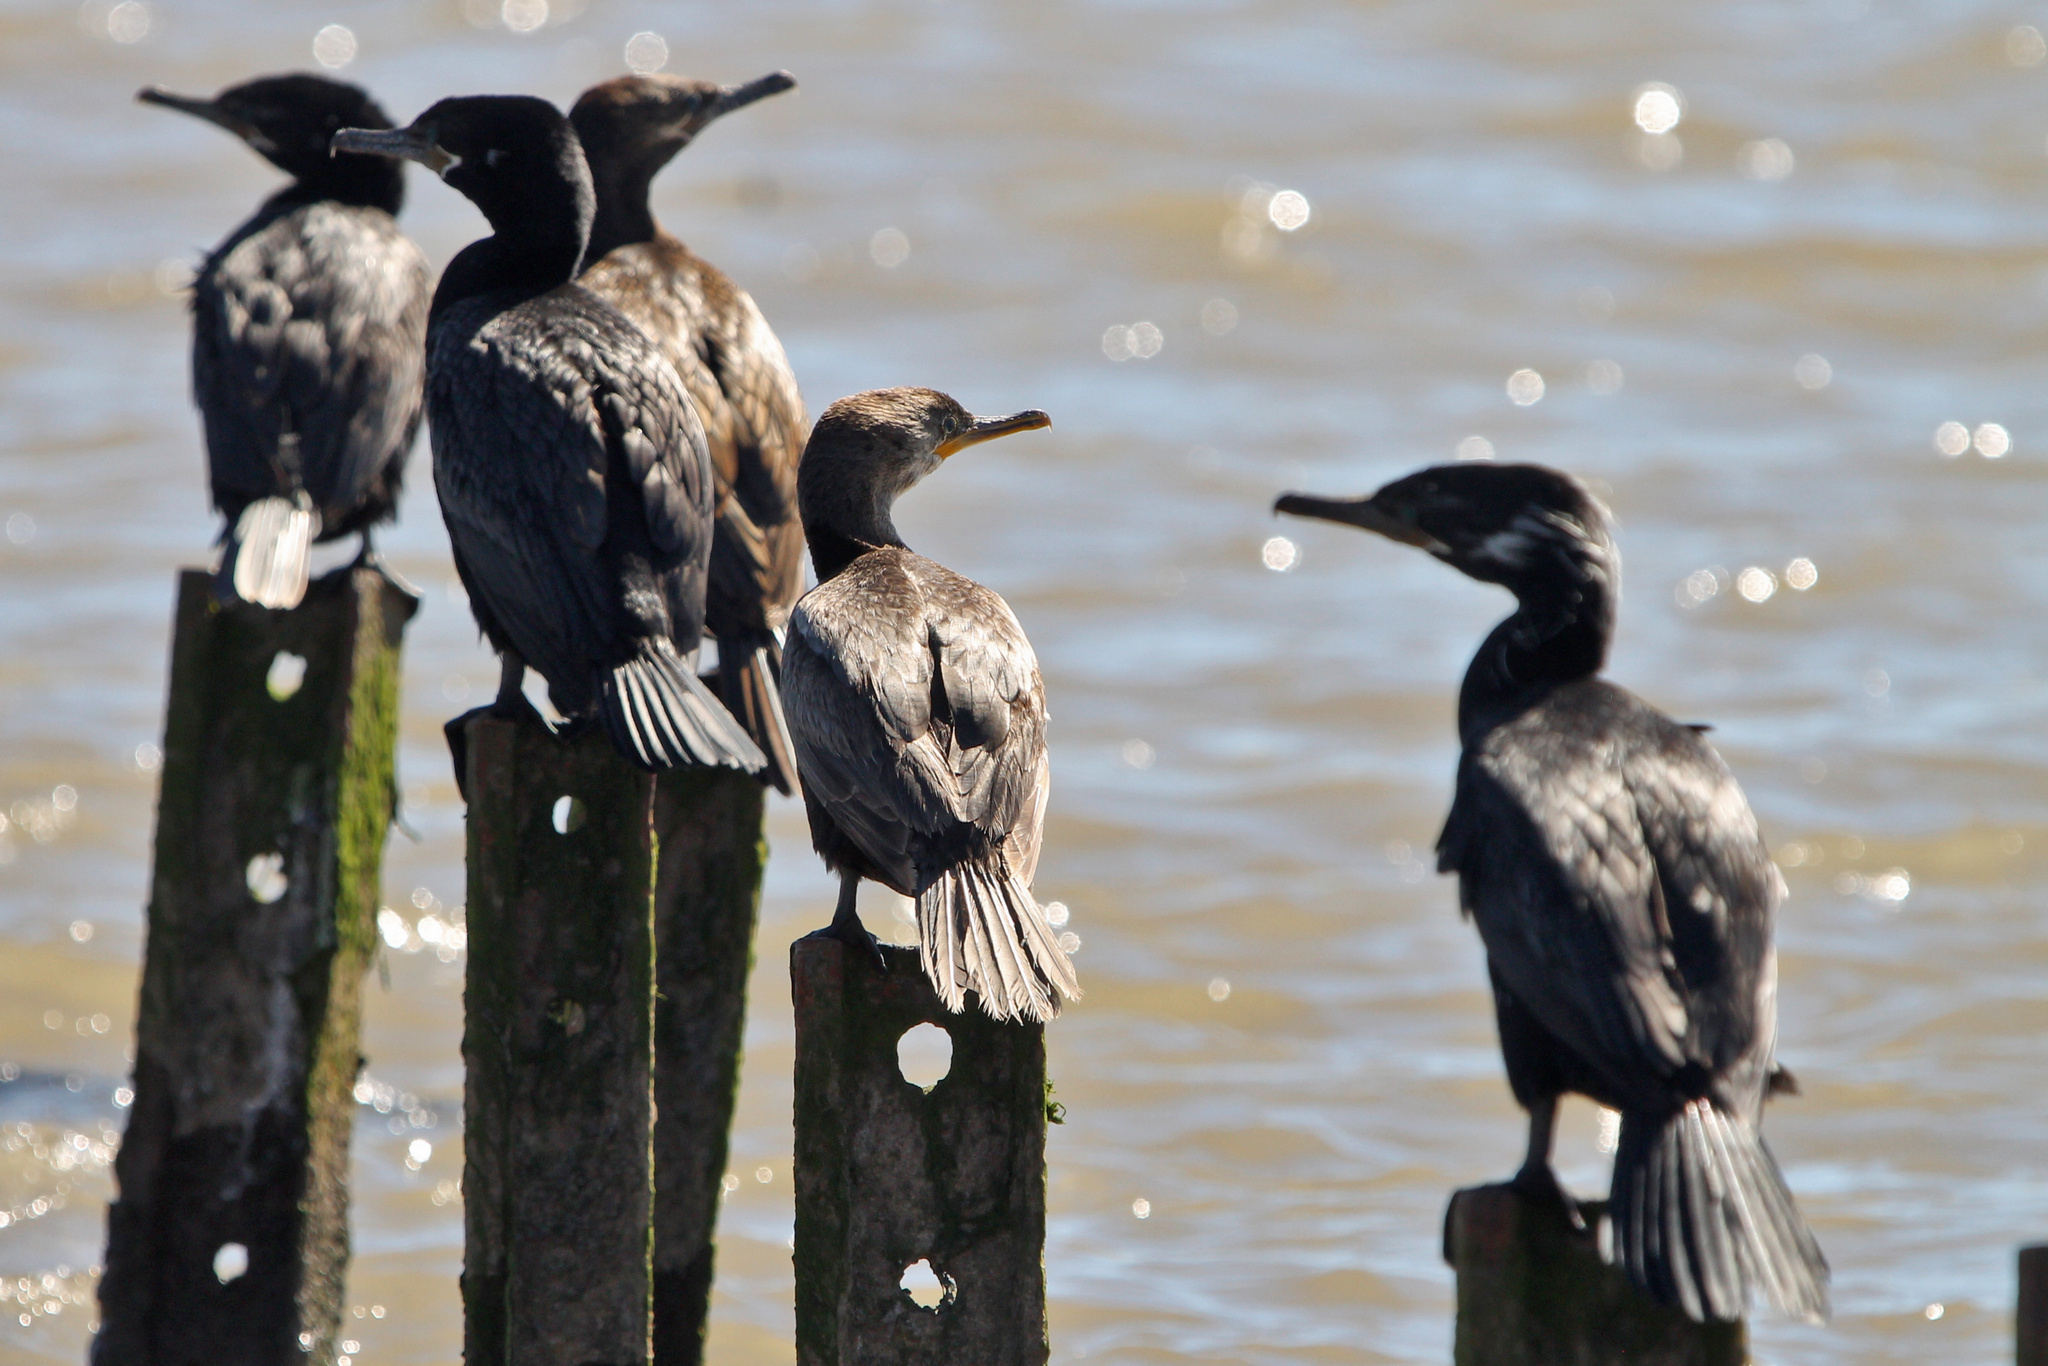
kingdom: Animalia
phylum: Chordata
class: Aves
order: Suliformes
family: Phalacrocoracidae
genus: Phalacrocorax
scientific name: Phalacrocorax brasilianus
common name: Neotropic cormorant
